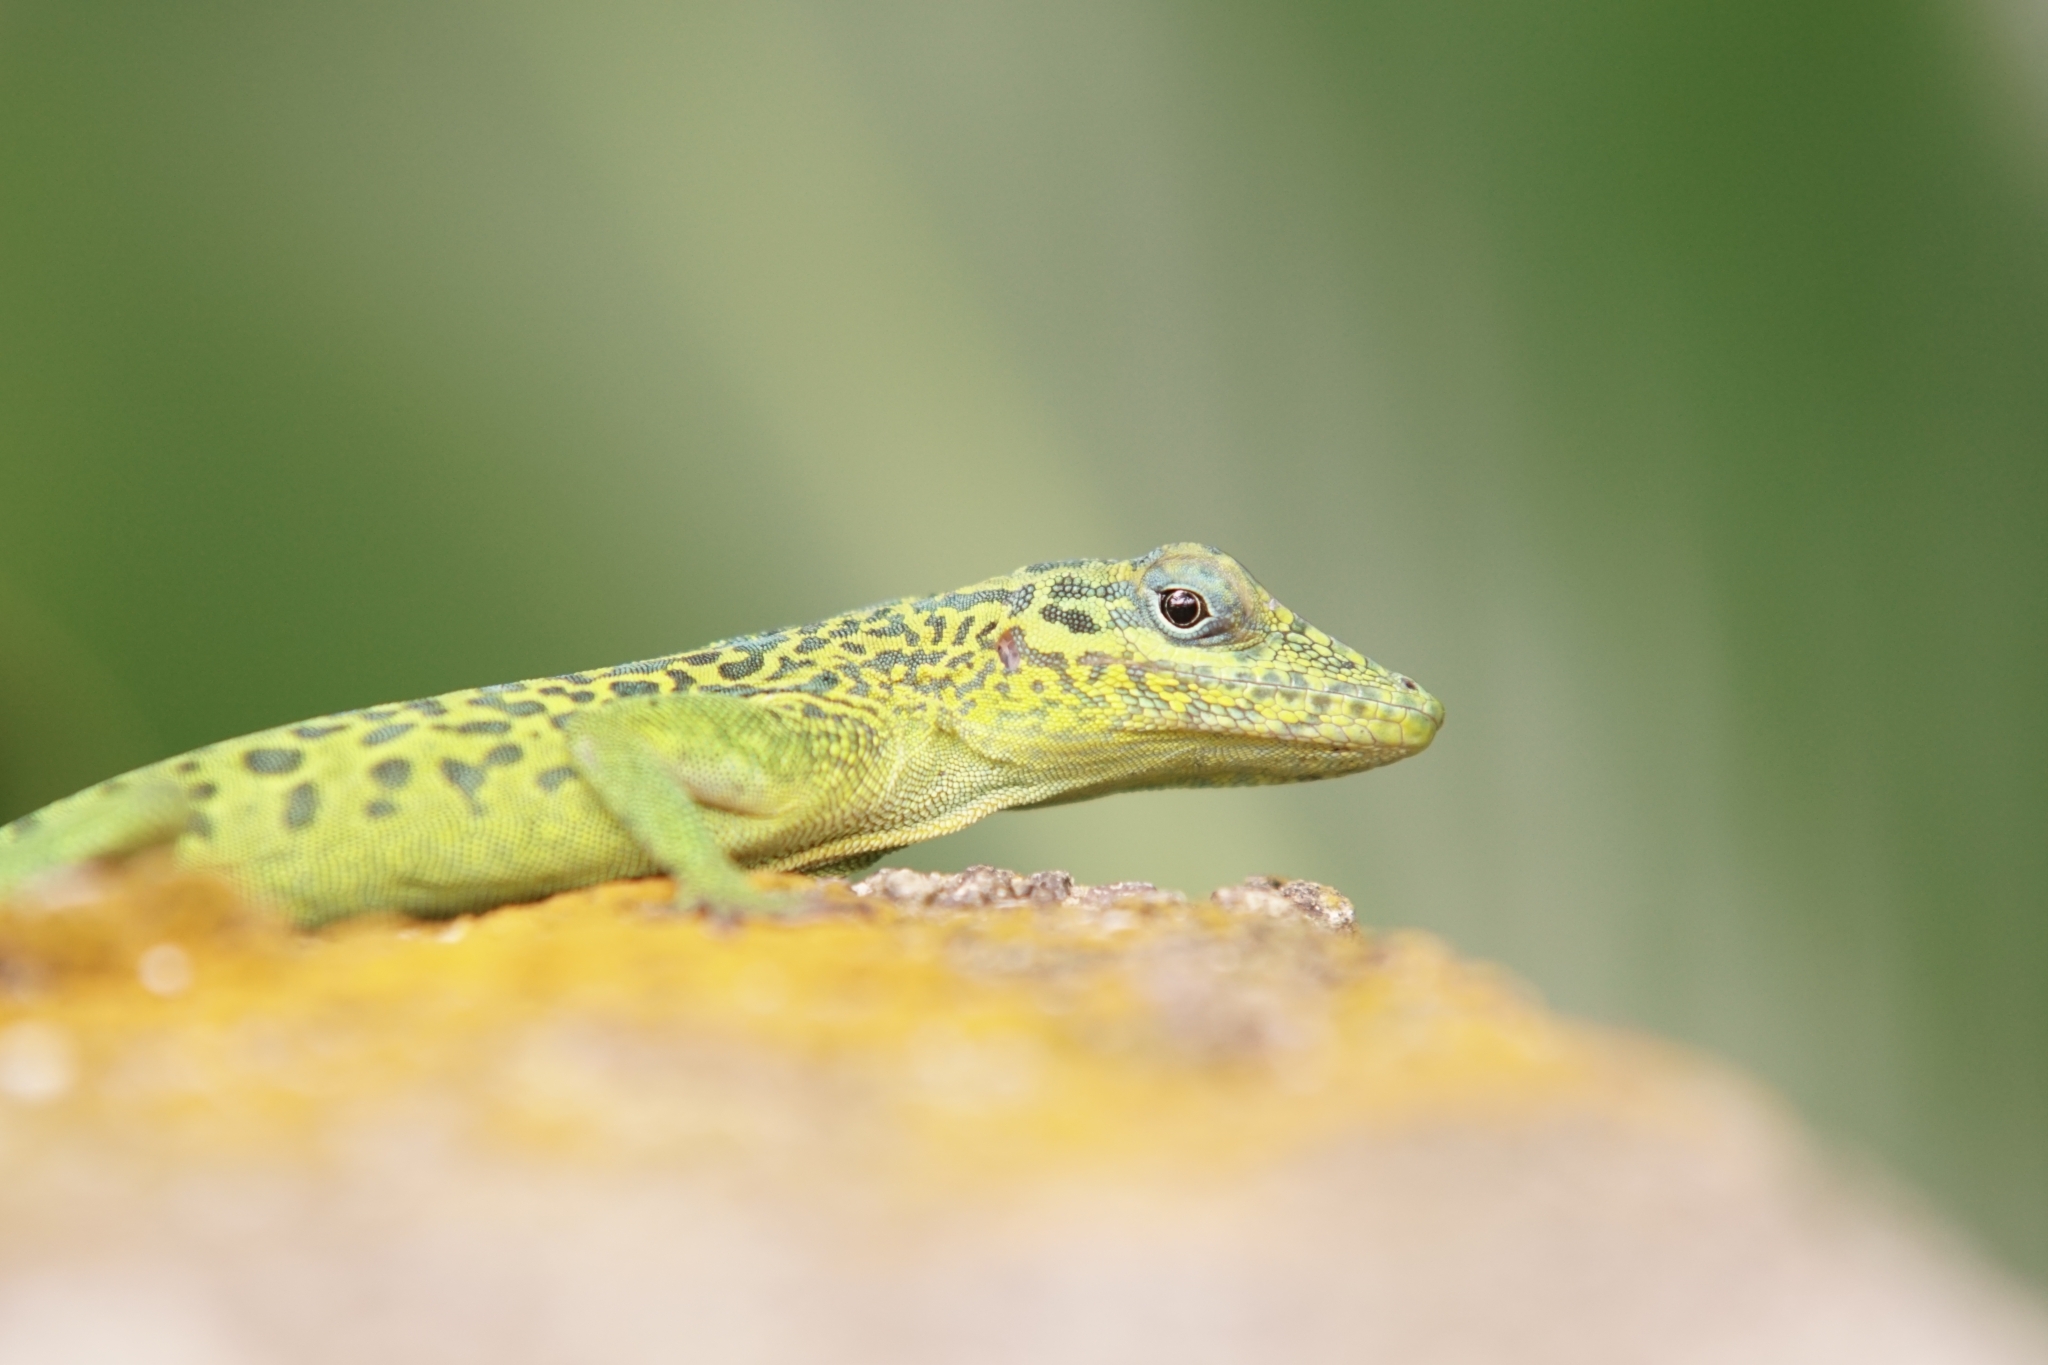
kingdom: Animalia
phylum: Chordata
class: Squamata
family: Dactyloidae
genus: Anolis
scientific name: Anolis marmoratus
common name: Guadeloupe anole
